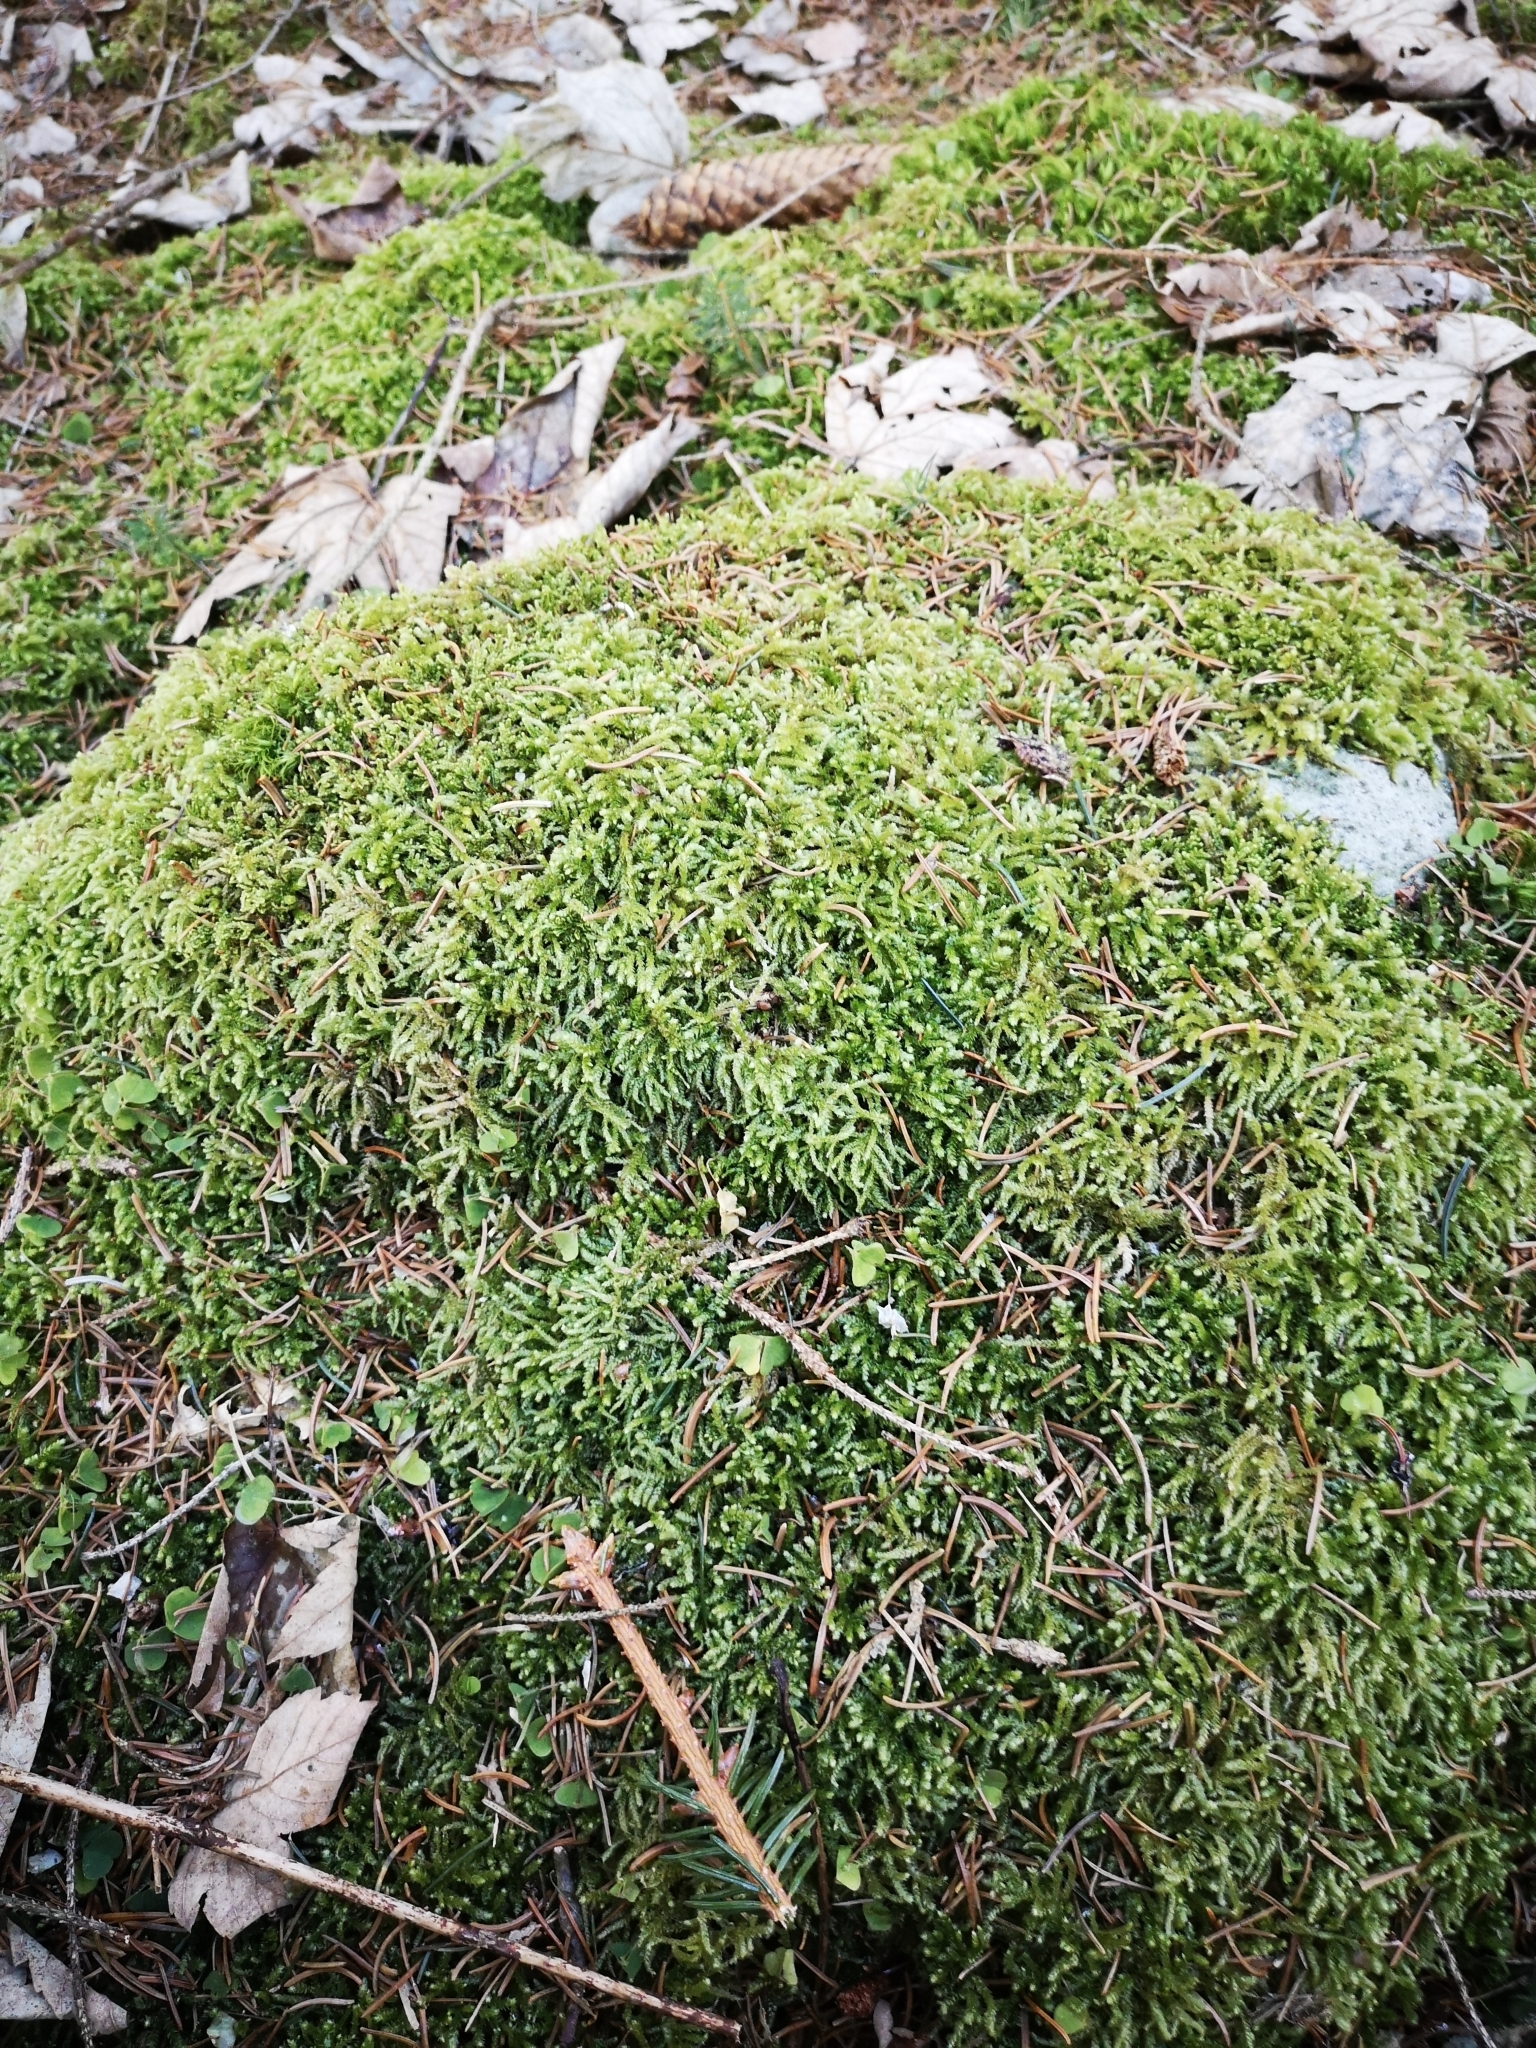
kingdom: Plantae
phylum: Bryophyta
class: Bryopsida
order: Hypnales
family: Brachytheciaceae
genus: Eurhynchium
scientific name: Eurhynchium angustirete
